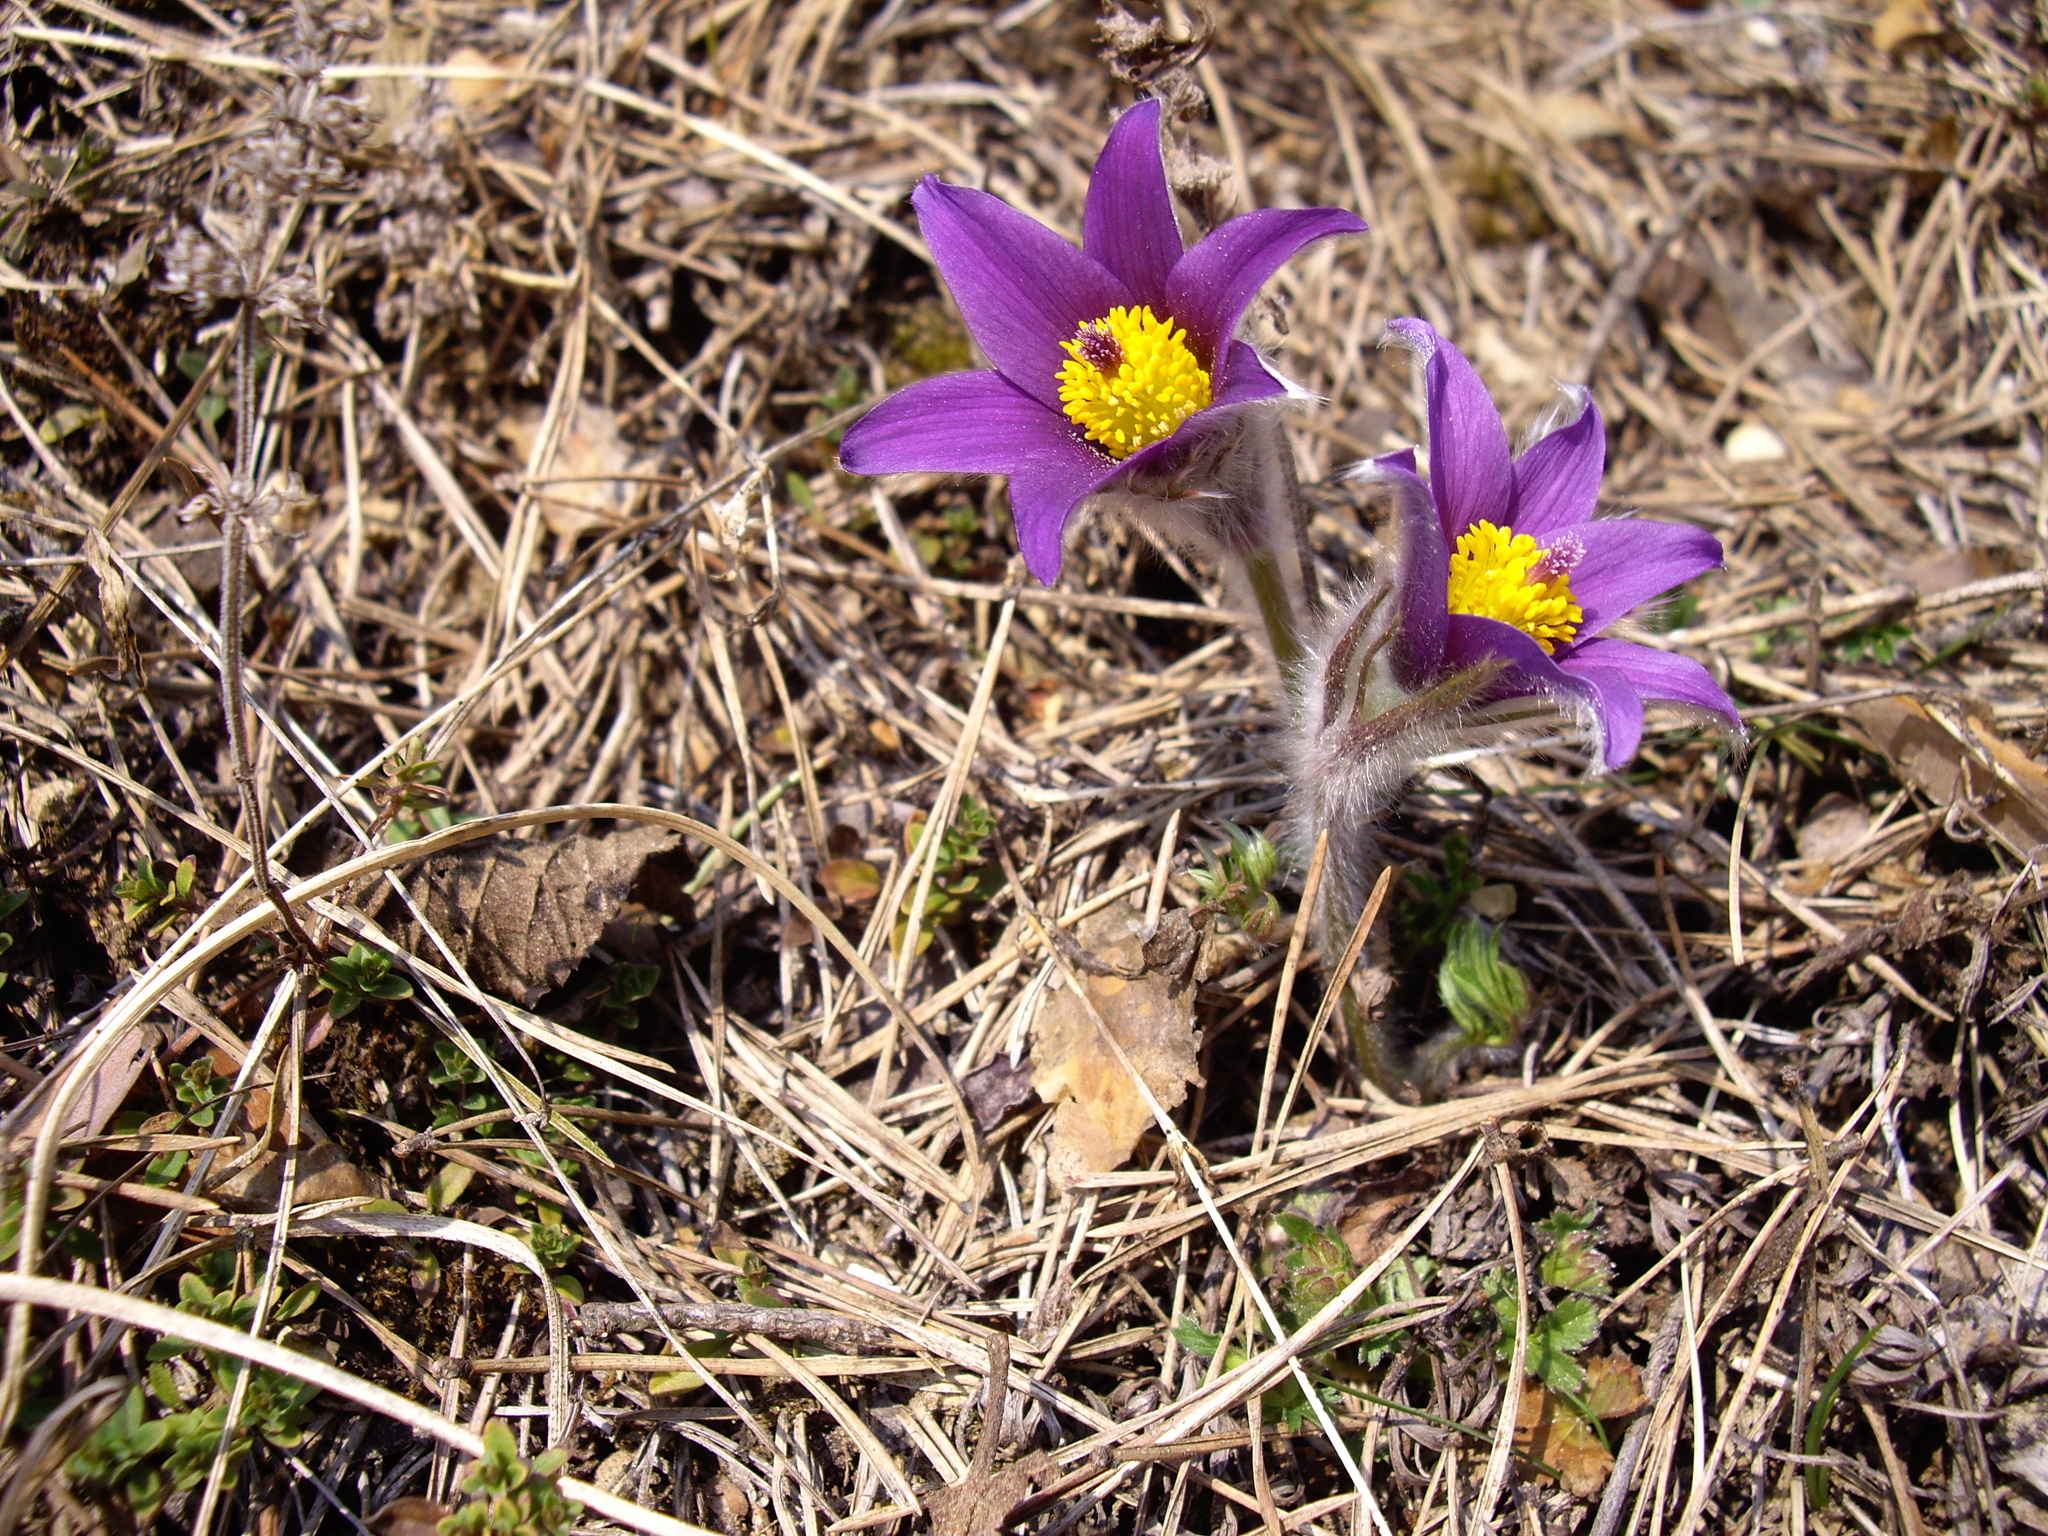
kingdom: Plantae
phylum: Tracheophyta
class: Magnoliopsida
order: Ranunculales
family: Ranunculaceae
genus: Pulsatilla
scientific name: Pulsatilla vulgaris
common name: Pasqueflower
